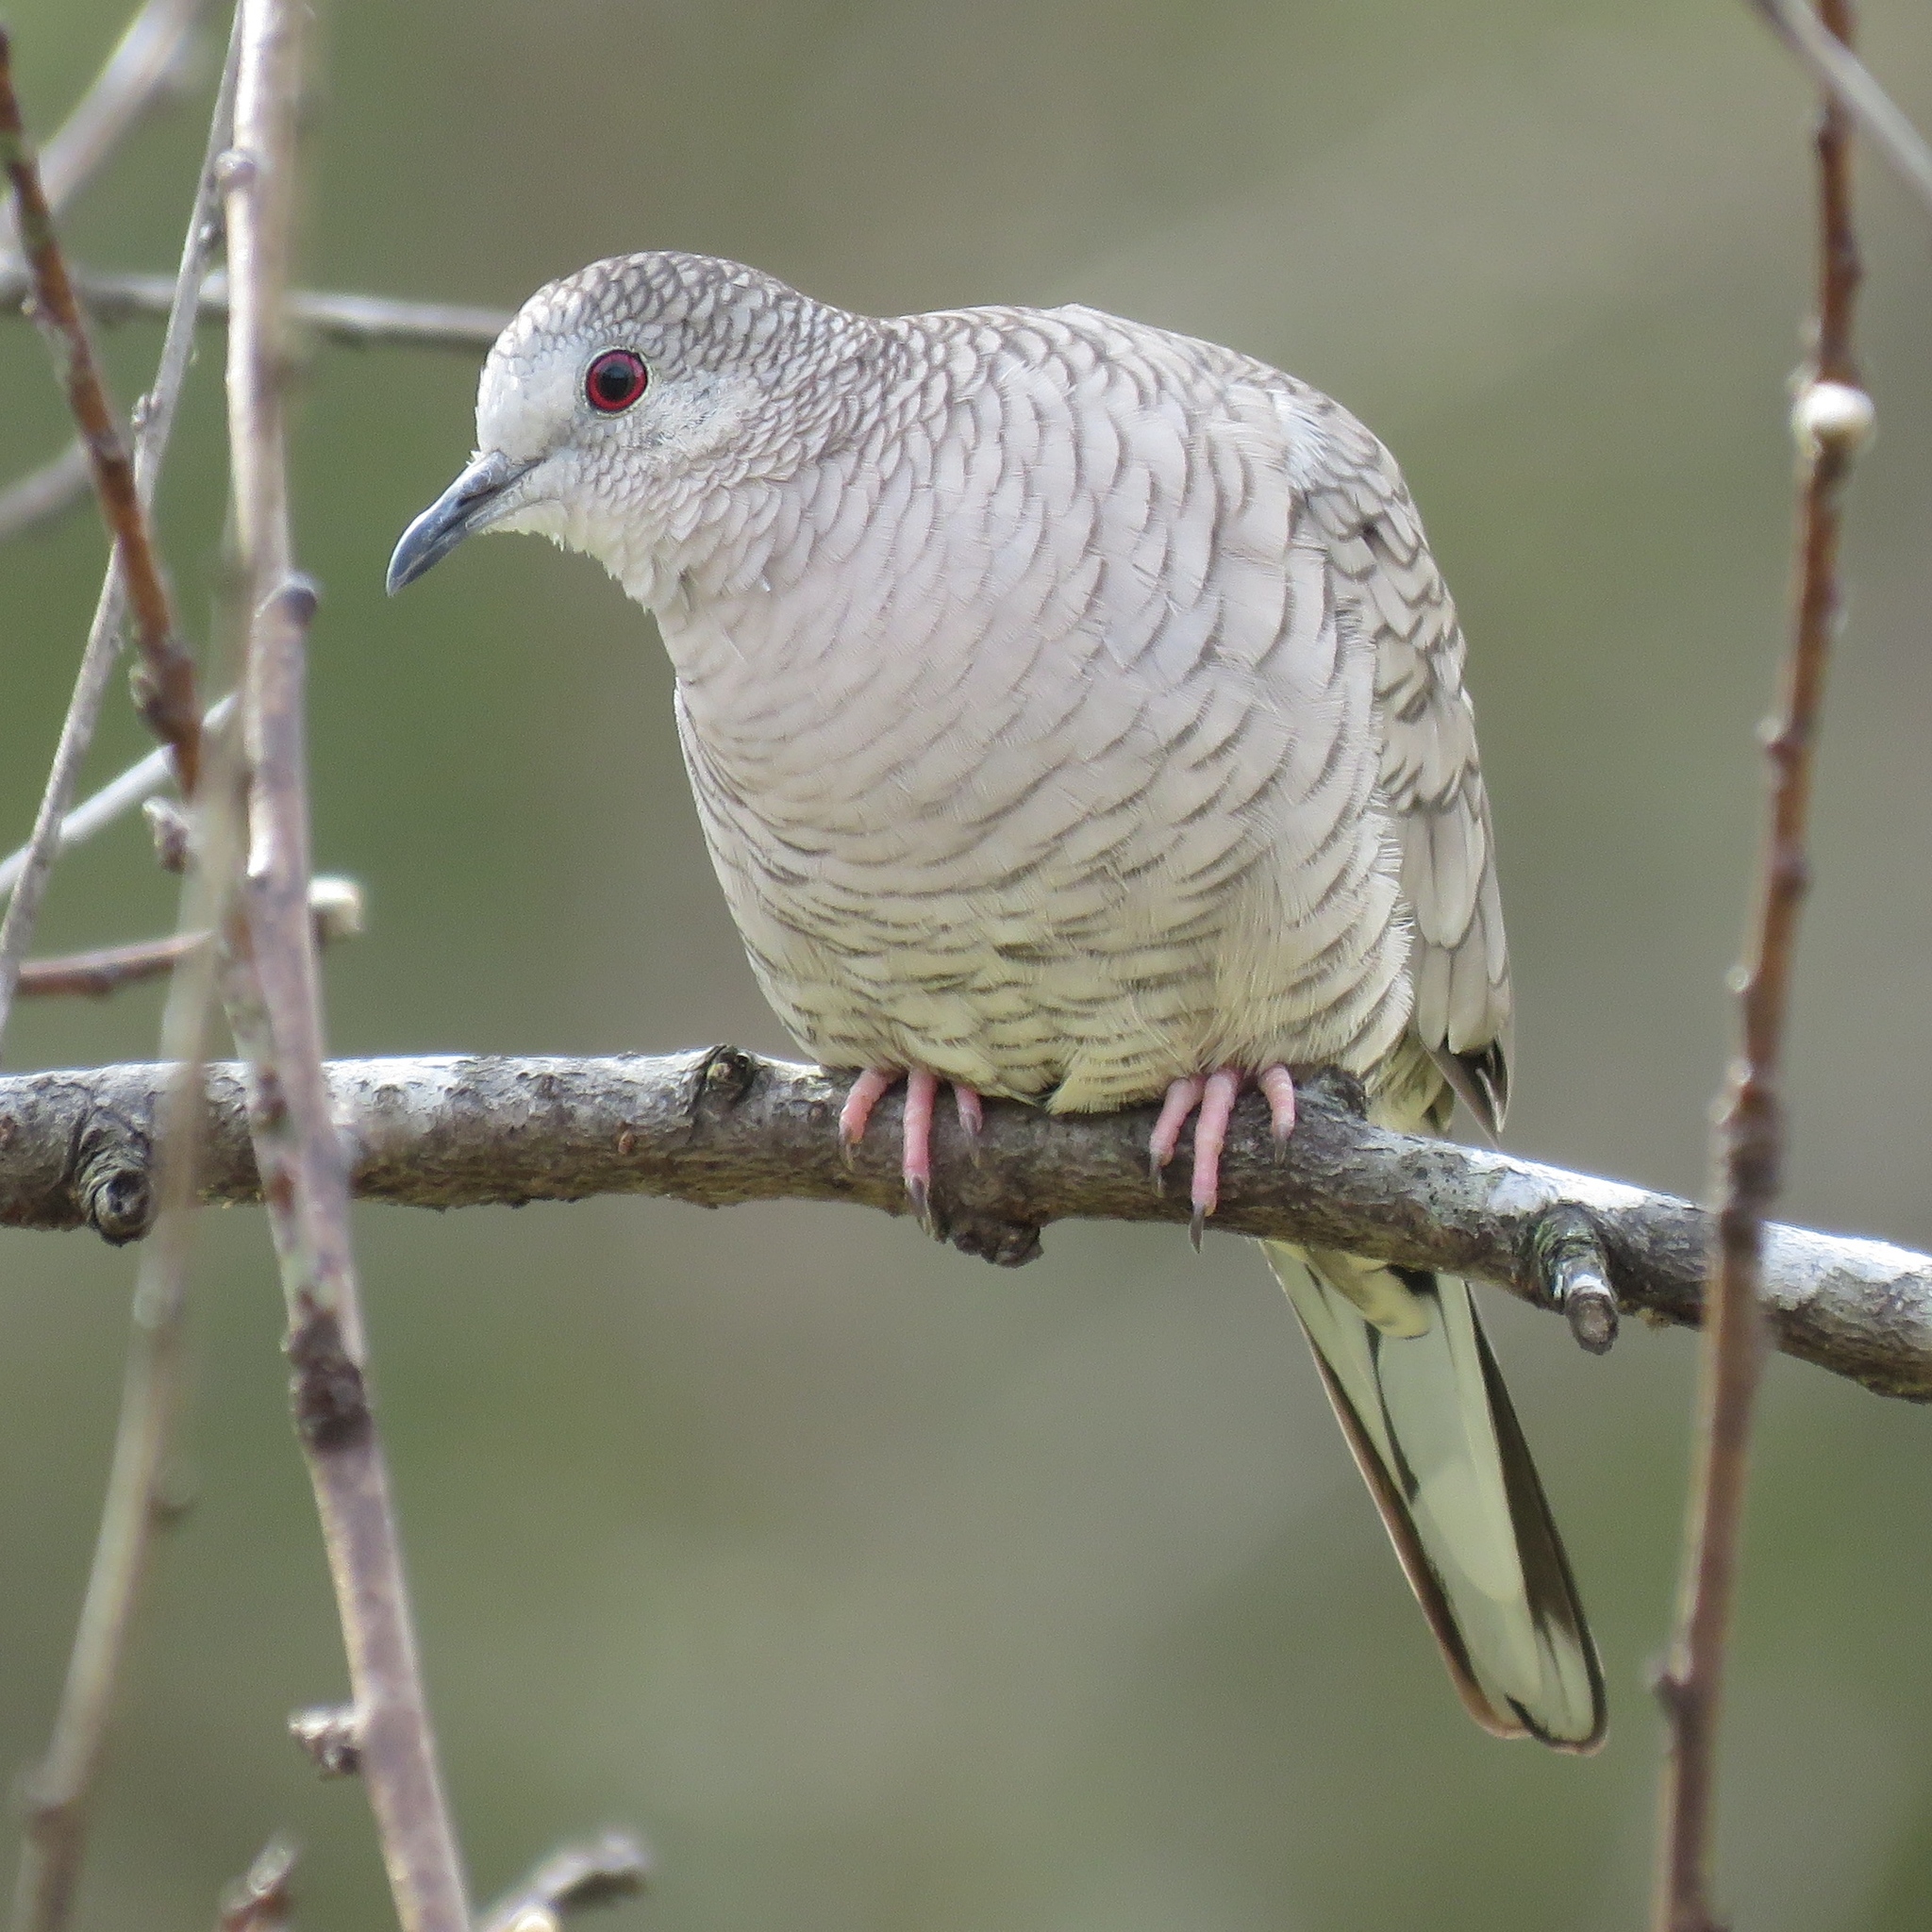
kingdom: Animalia
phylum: Chordata
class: Aves
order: Columbiformes
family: Columbidae
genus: Columbina
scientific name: Columbina inca
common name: Inca dove
